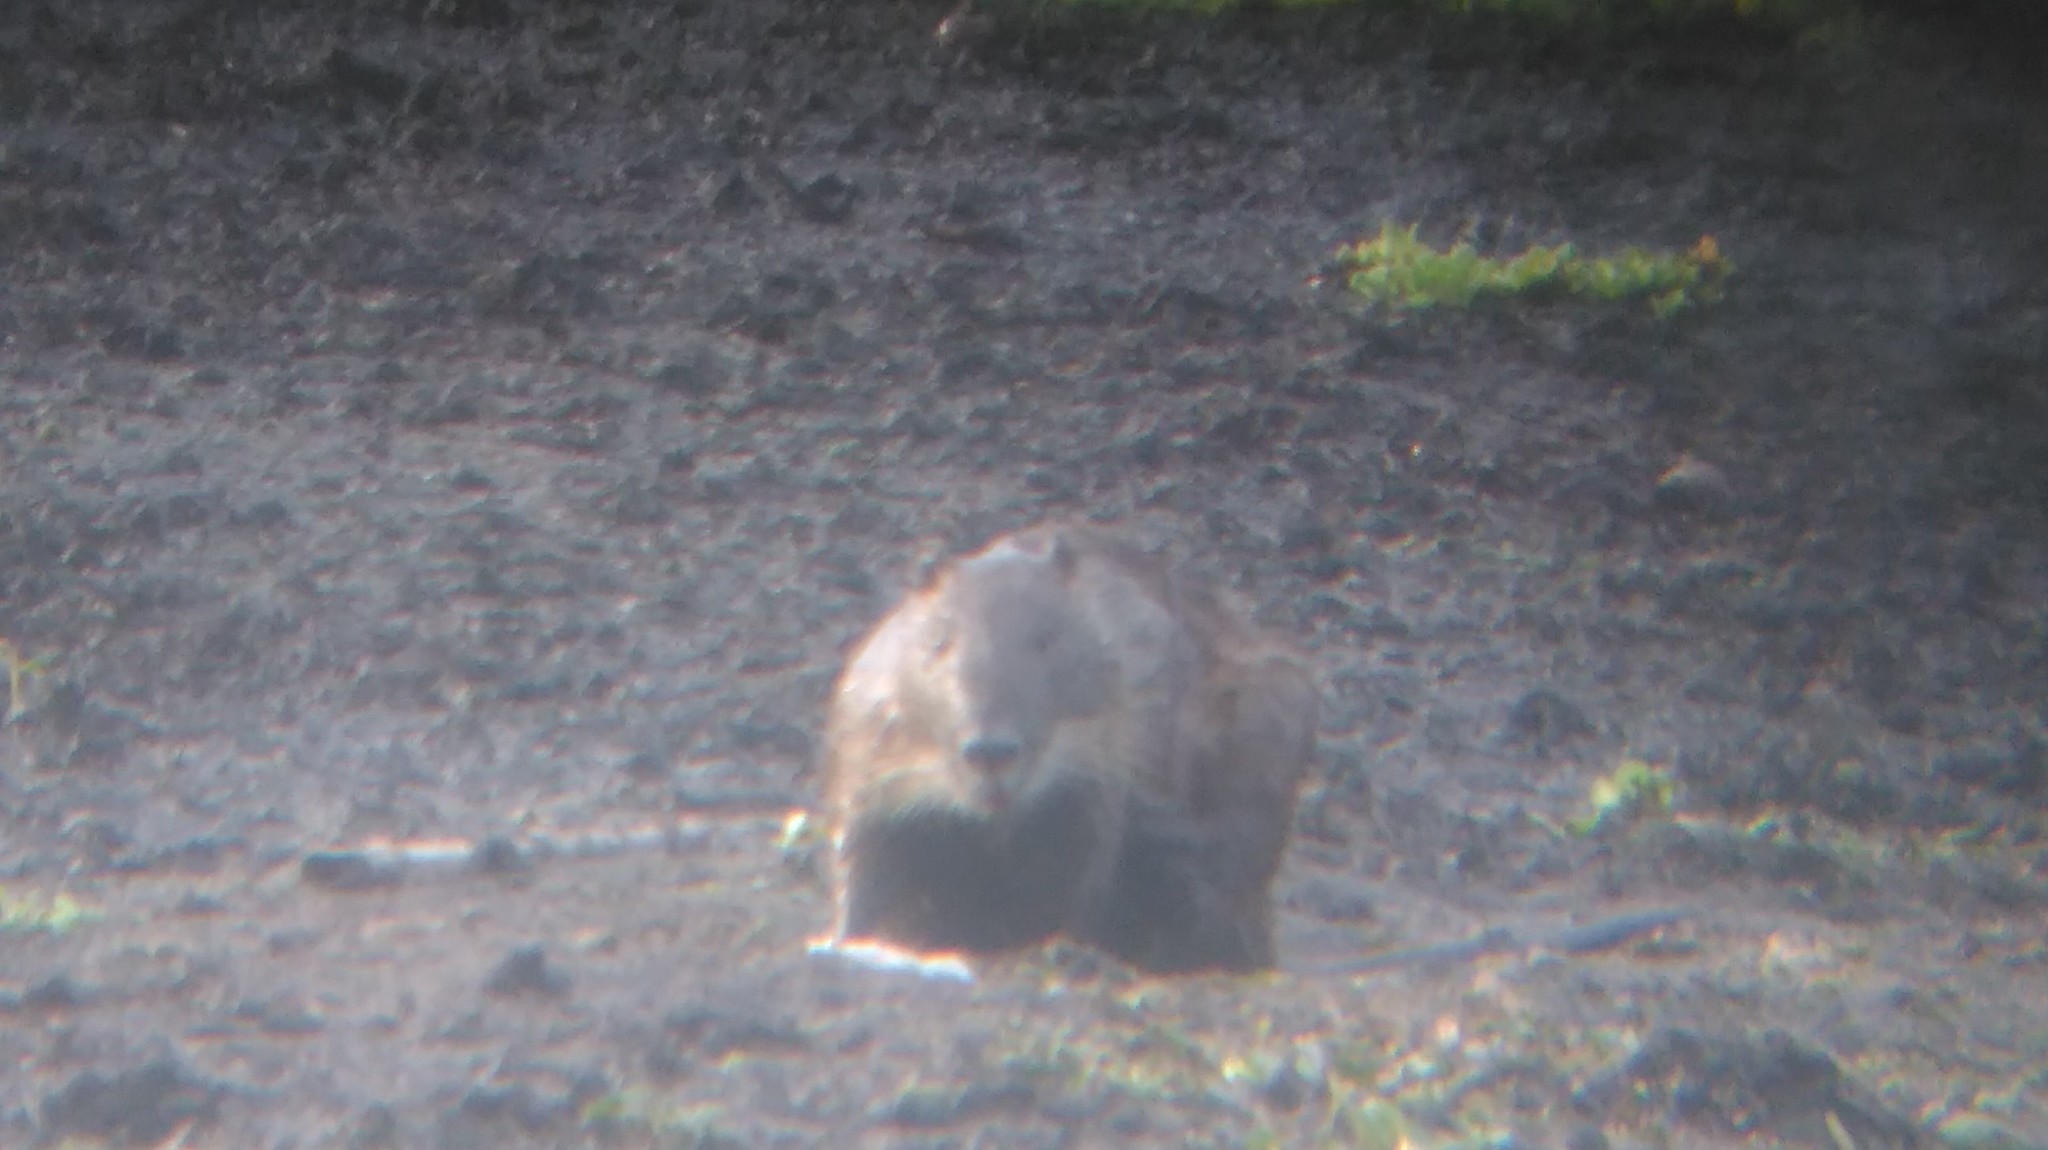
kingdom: Animalia
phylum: Chordata
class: Mammalia
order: Rodentia
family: Myocastoridae
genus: Myocastor
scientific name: Myocastor coypus
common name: Coypu
